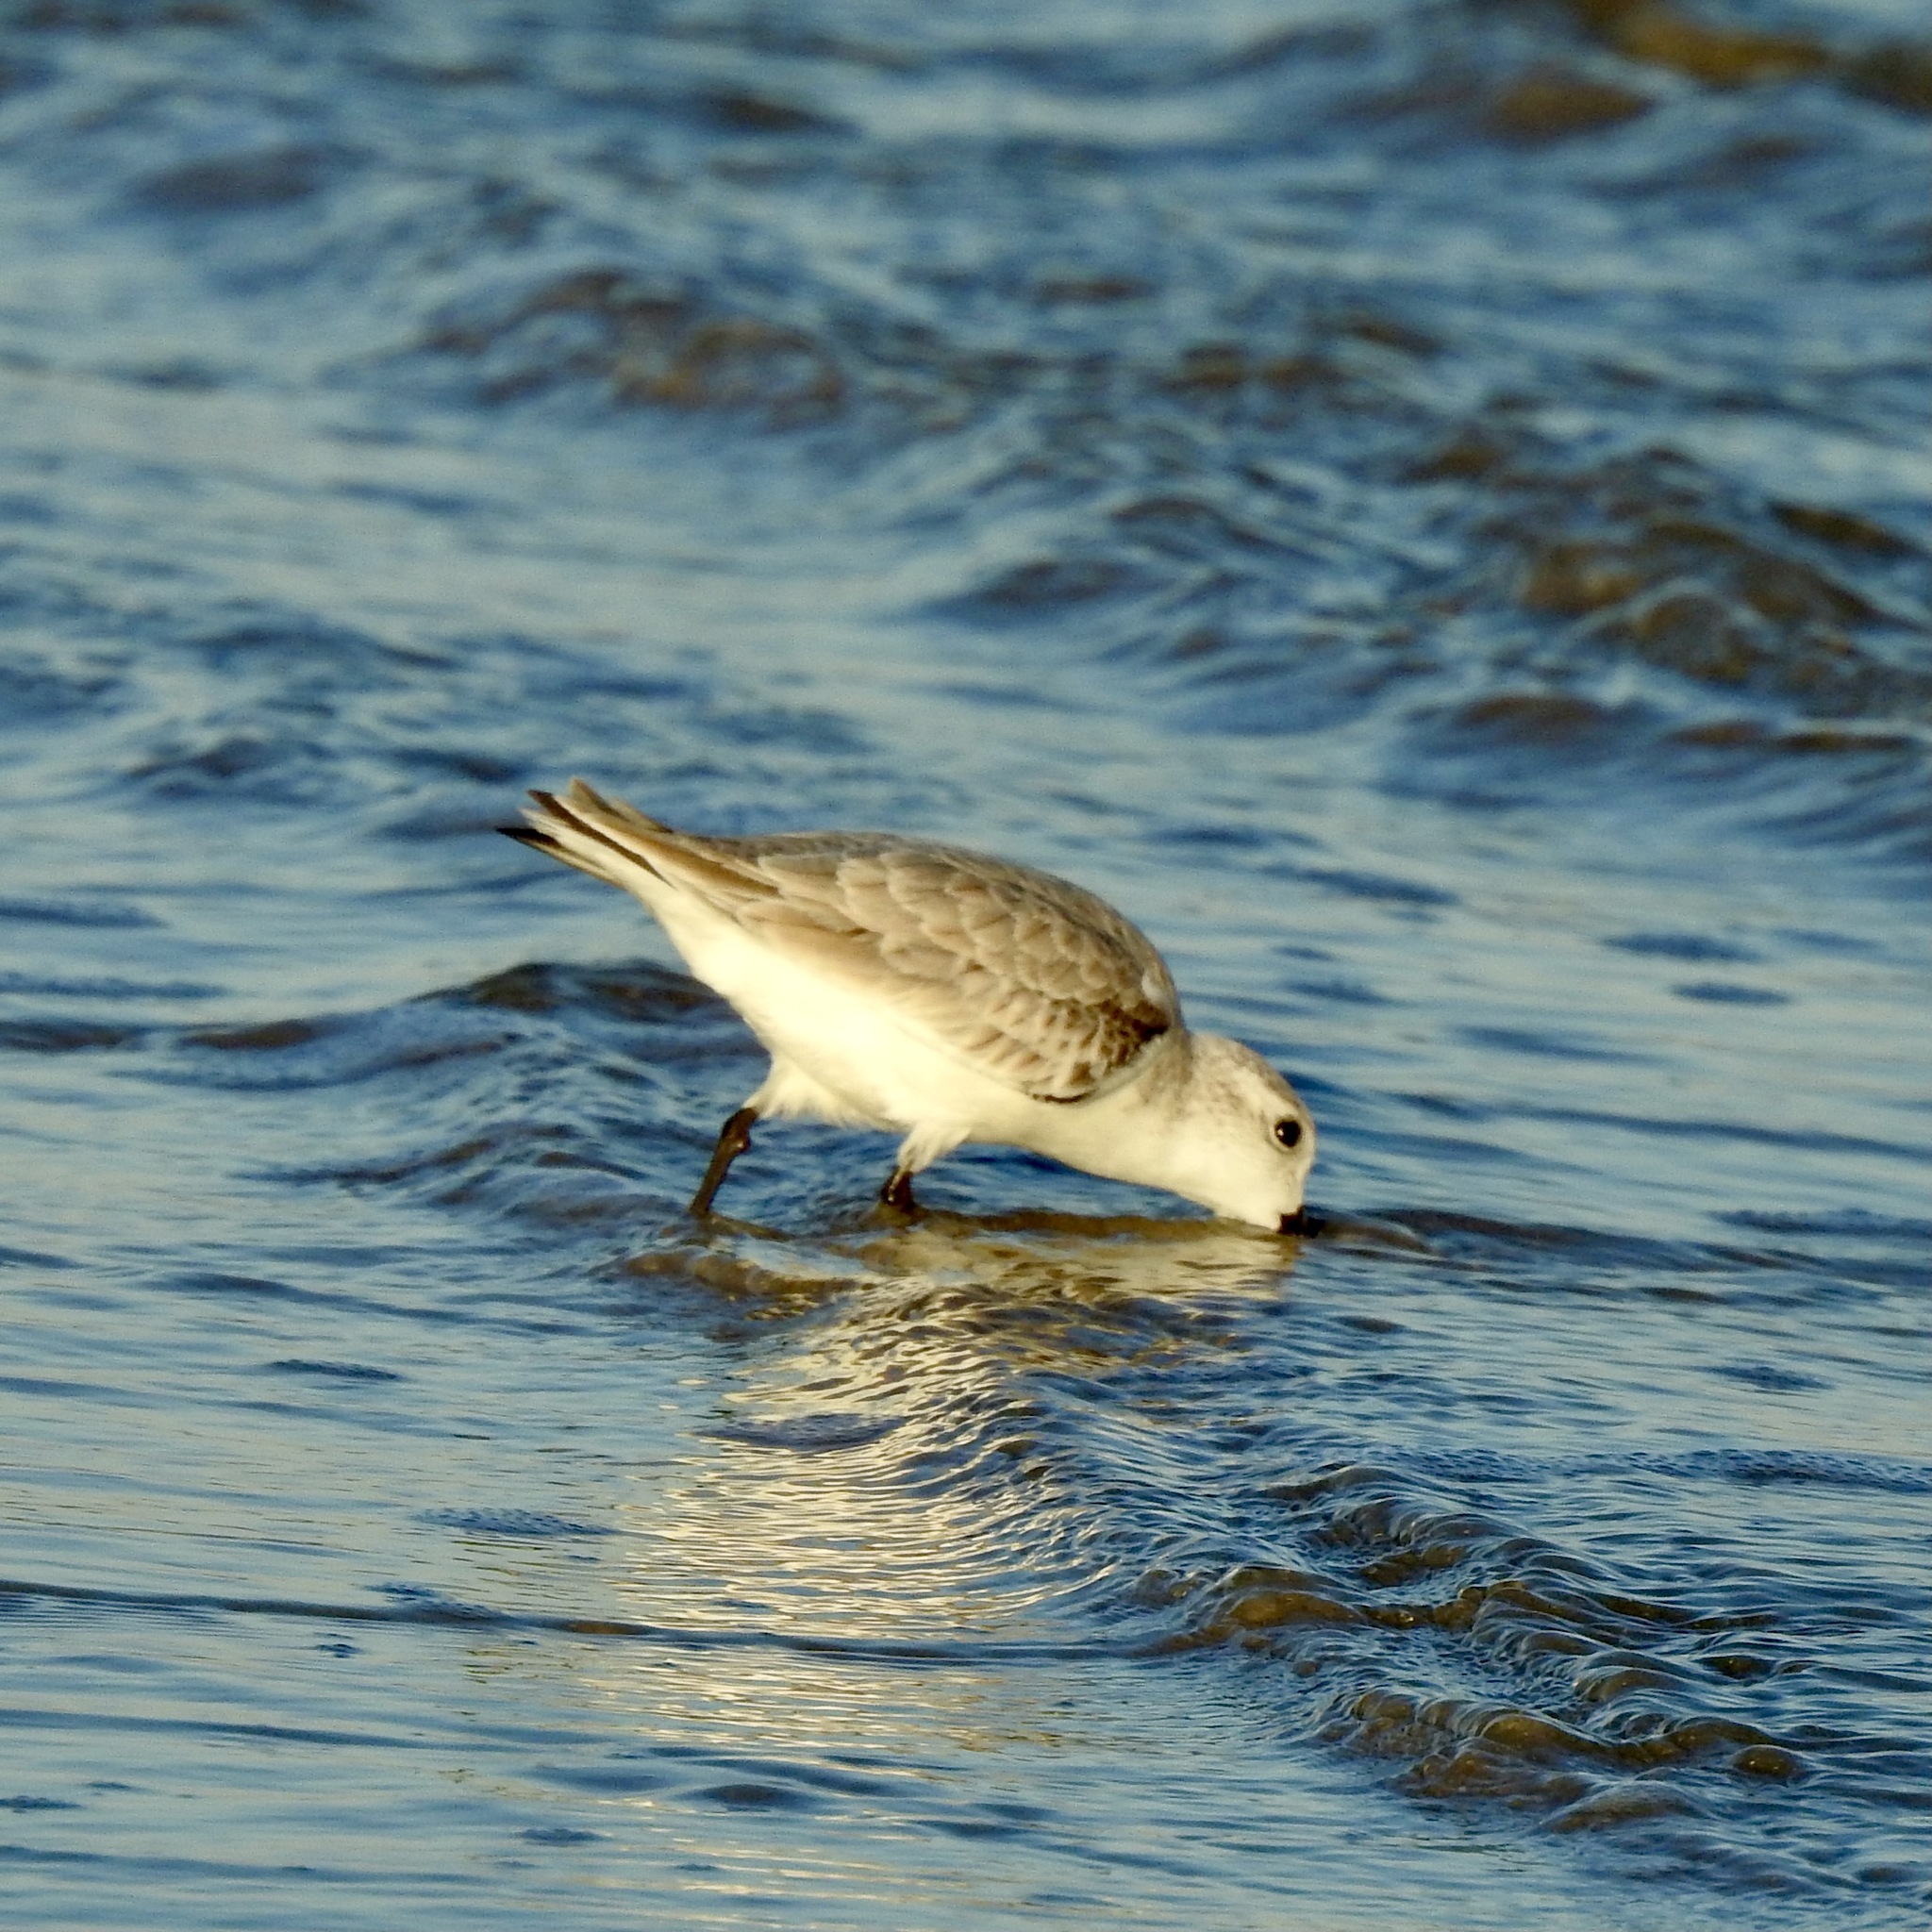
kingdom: Animalia
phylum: Chordata
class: Aves
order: Charadriiformes
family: Scolopacidae
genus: Calidris
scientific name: Calidris alba
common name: Sanderling
